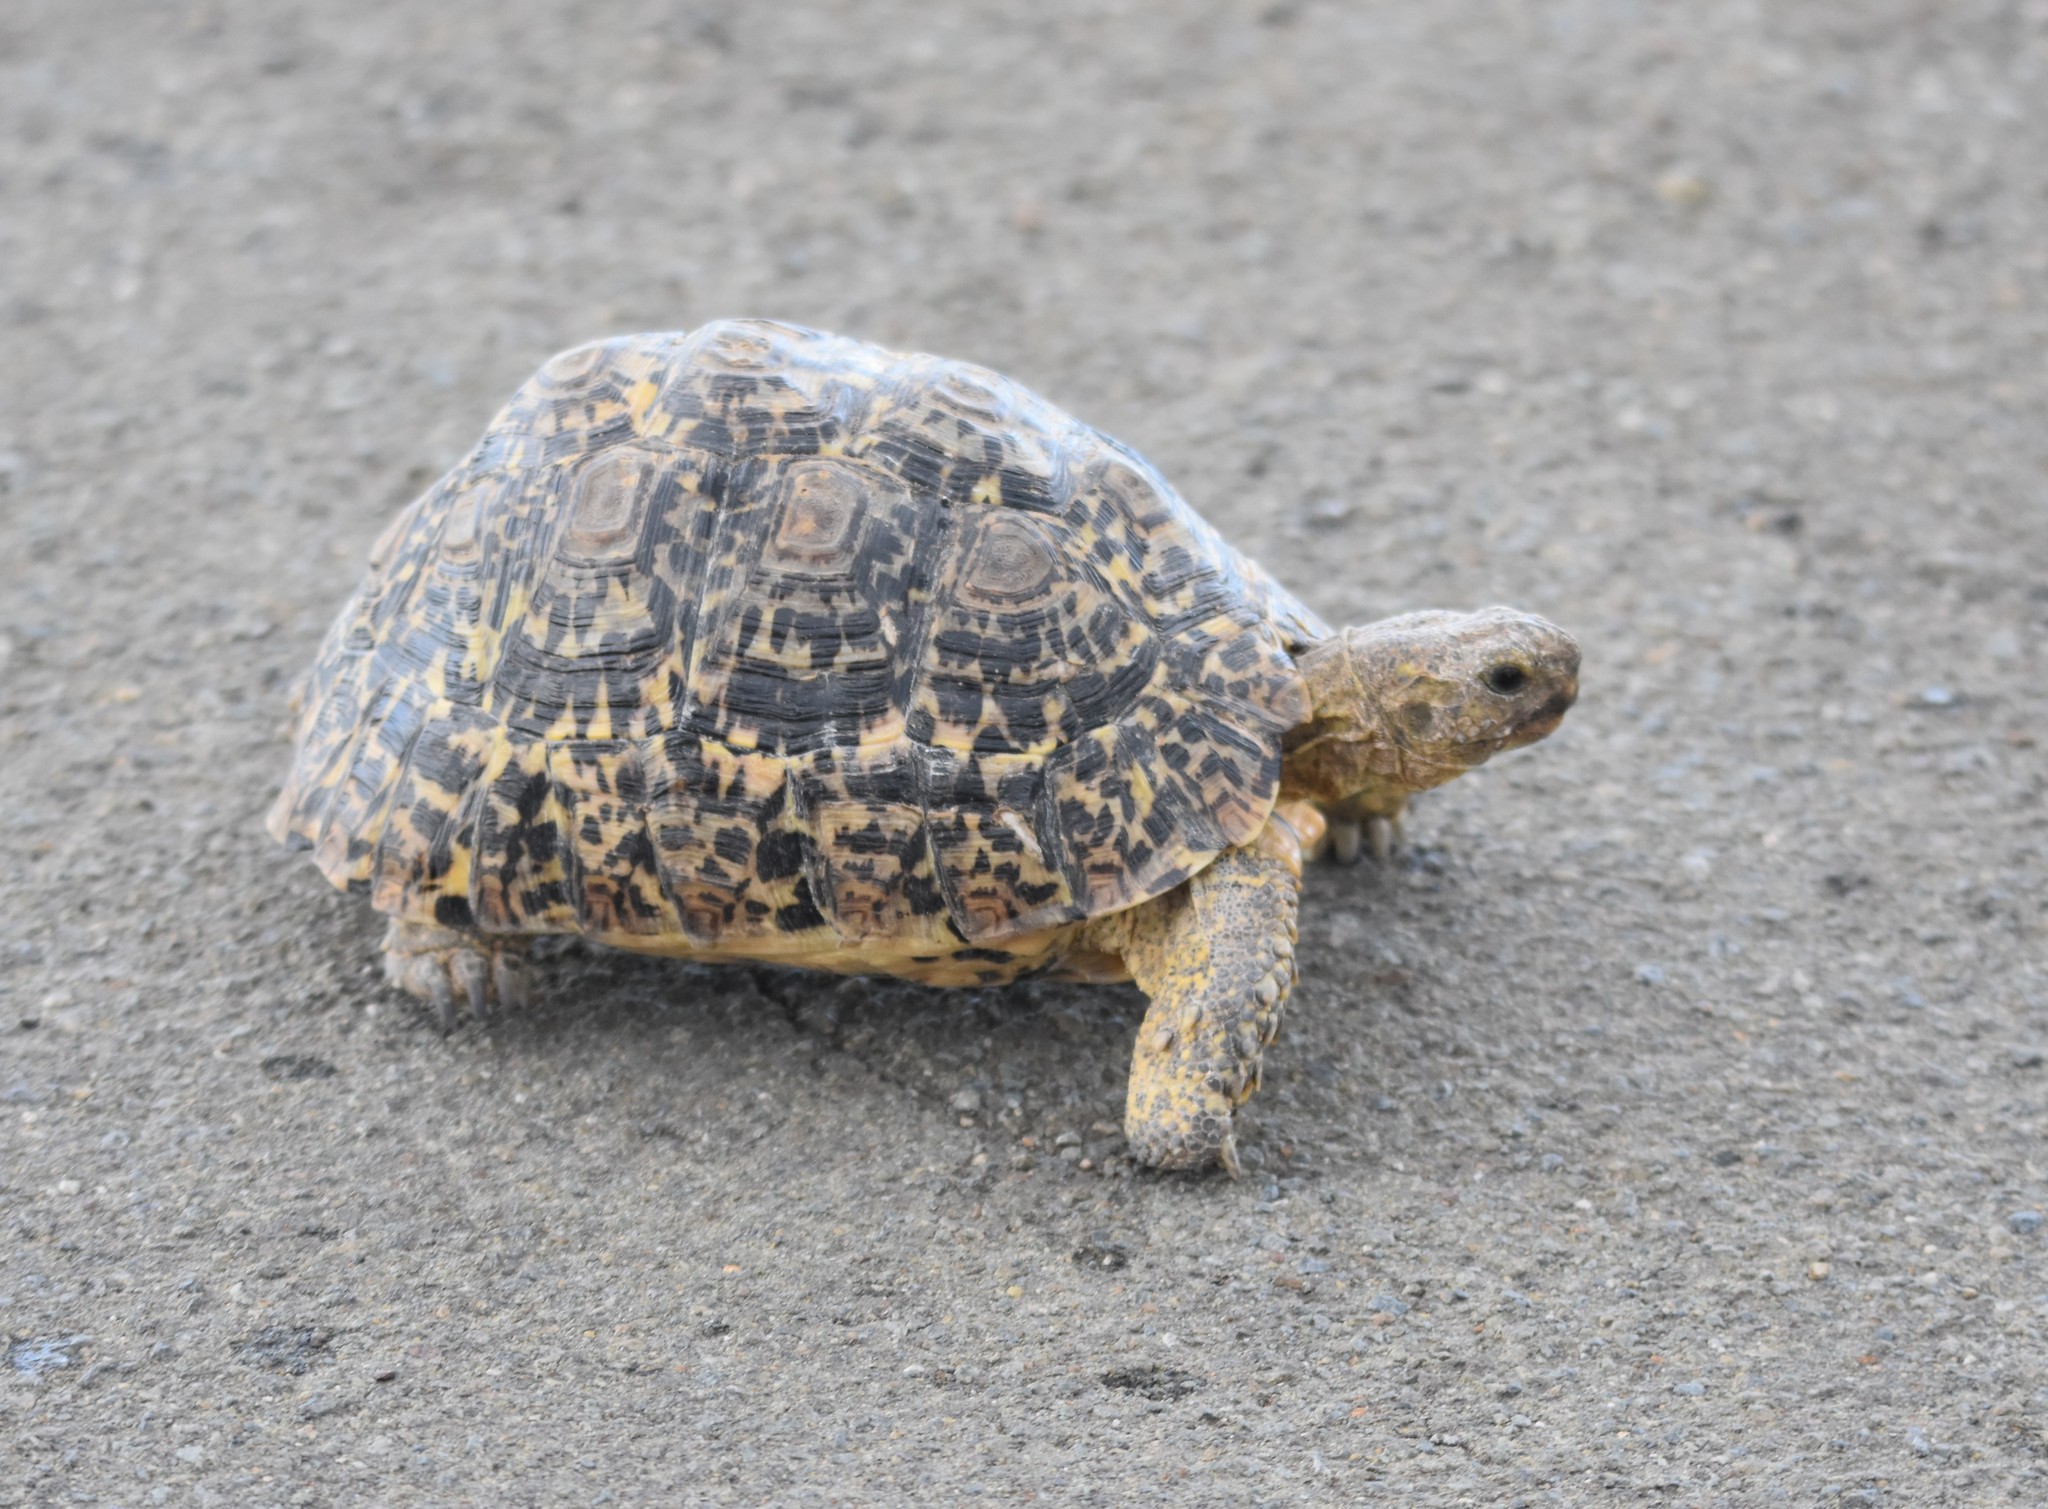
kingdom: Animalia
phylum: Chordata
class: Testudines
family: Testudinidae
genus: Stigmochelys
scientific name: Stigmochelys pardalis
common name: Leopard tortoise
